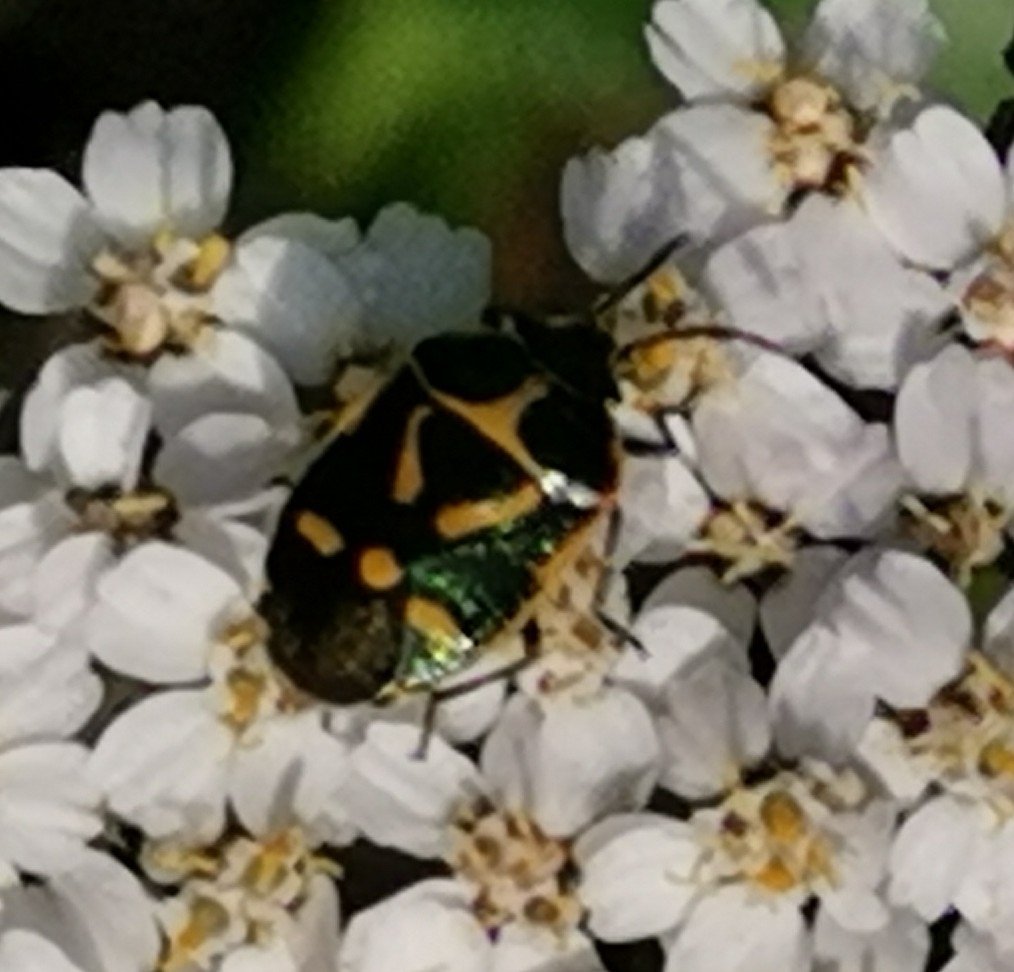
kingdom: Animalia
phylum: Arthropoda
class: Insecta
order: Hemiptera
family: Pentatomidae
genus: Eurydema
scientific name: Eurydema oleracea
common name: Cabbage bug
